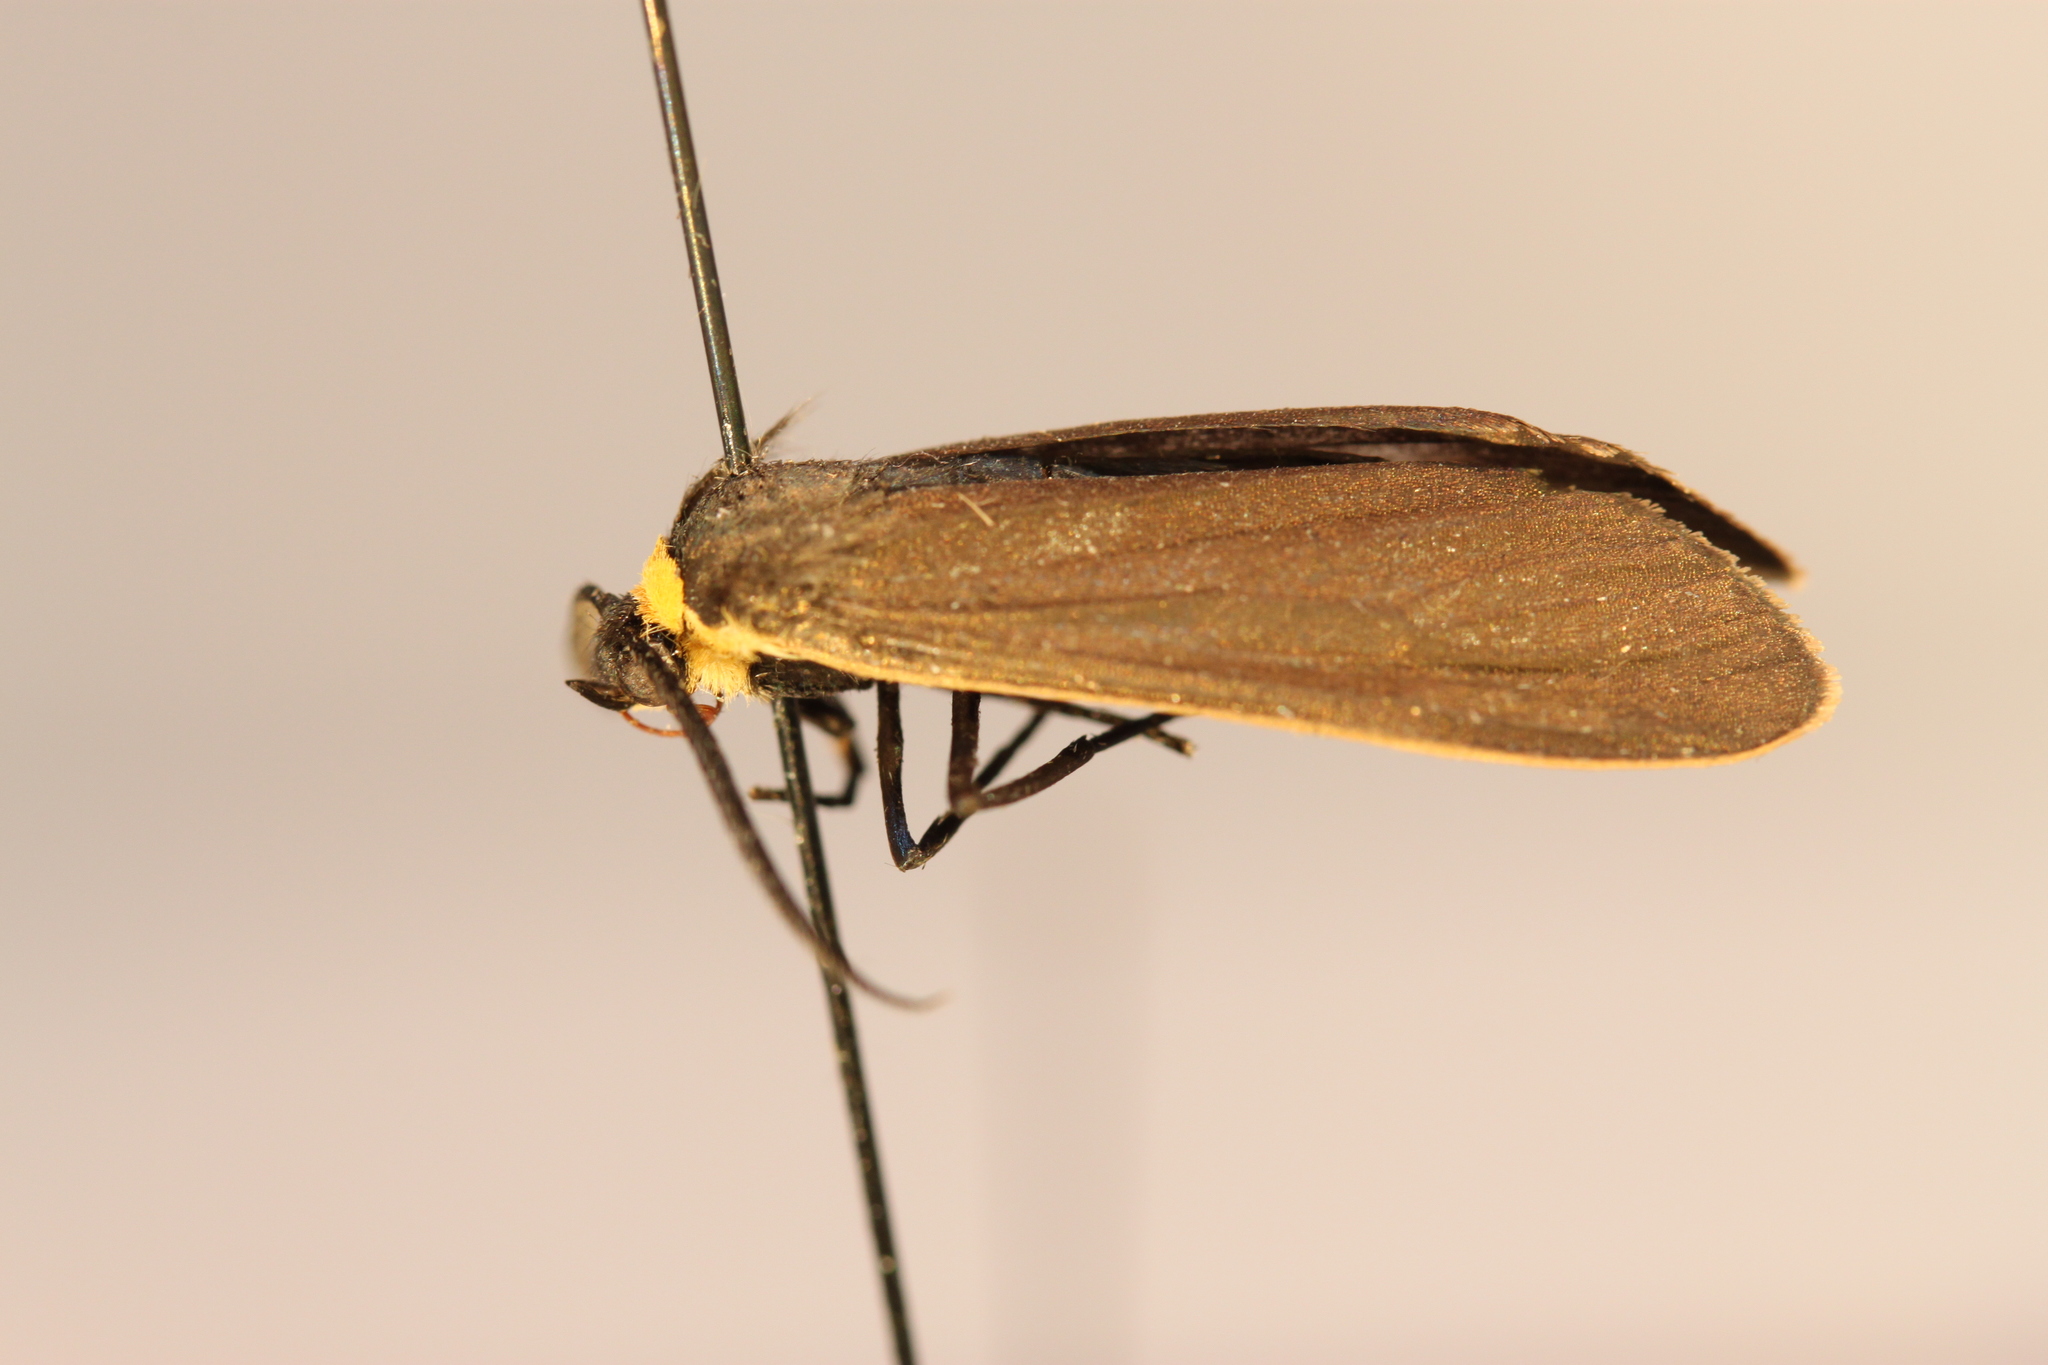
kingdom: Animalia
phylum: Arthropoda
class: Insecta
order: Lepidoptera
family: Erebidae
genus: Cisseps
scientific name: Cisseps fulvicollis
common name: Yellow-collared scape moth
